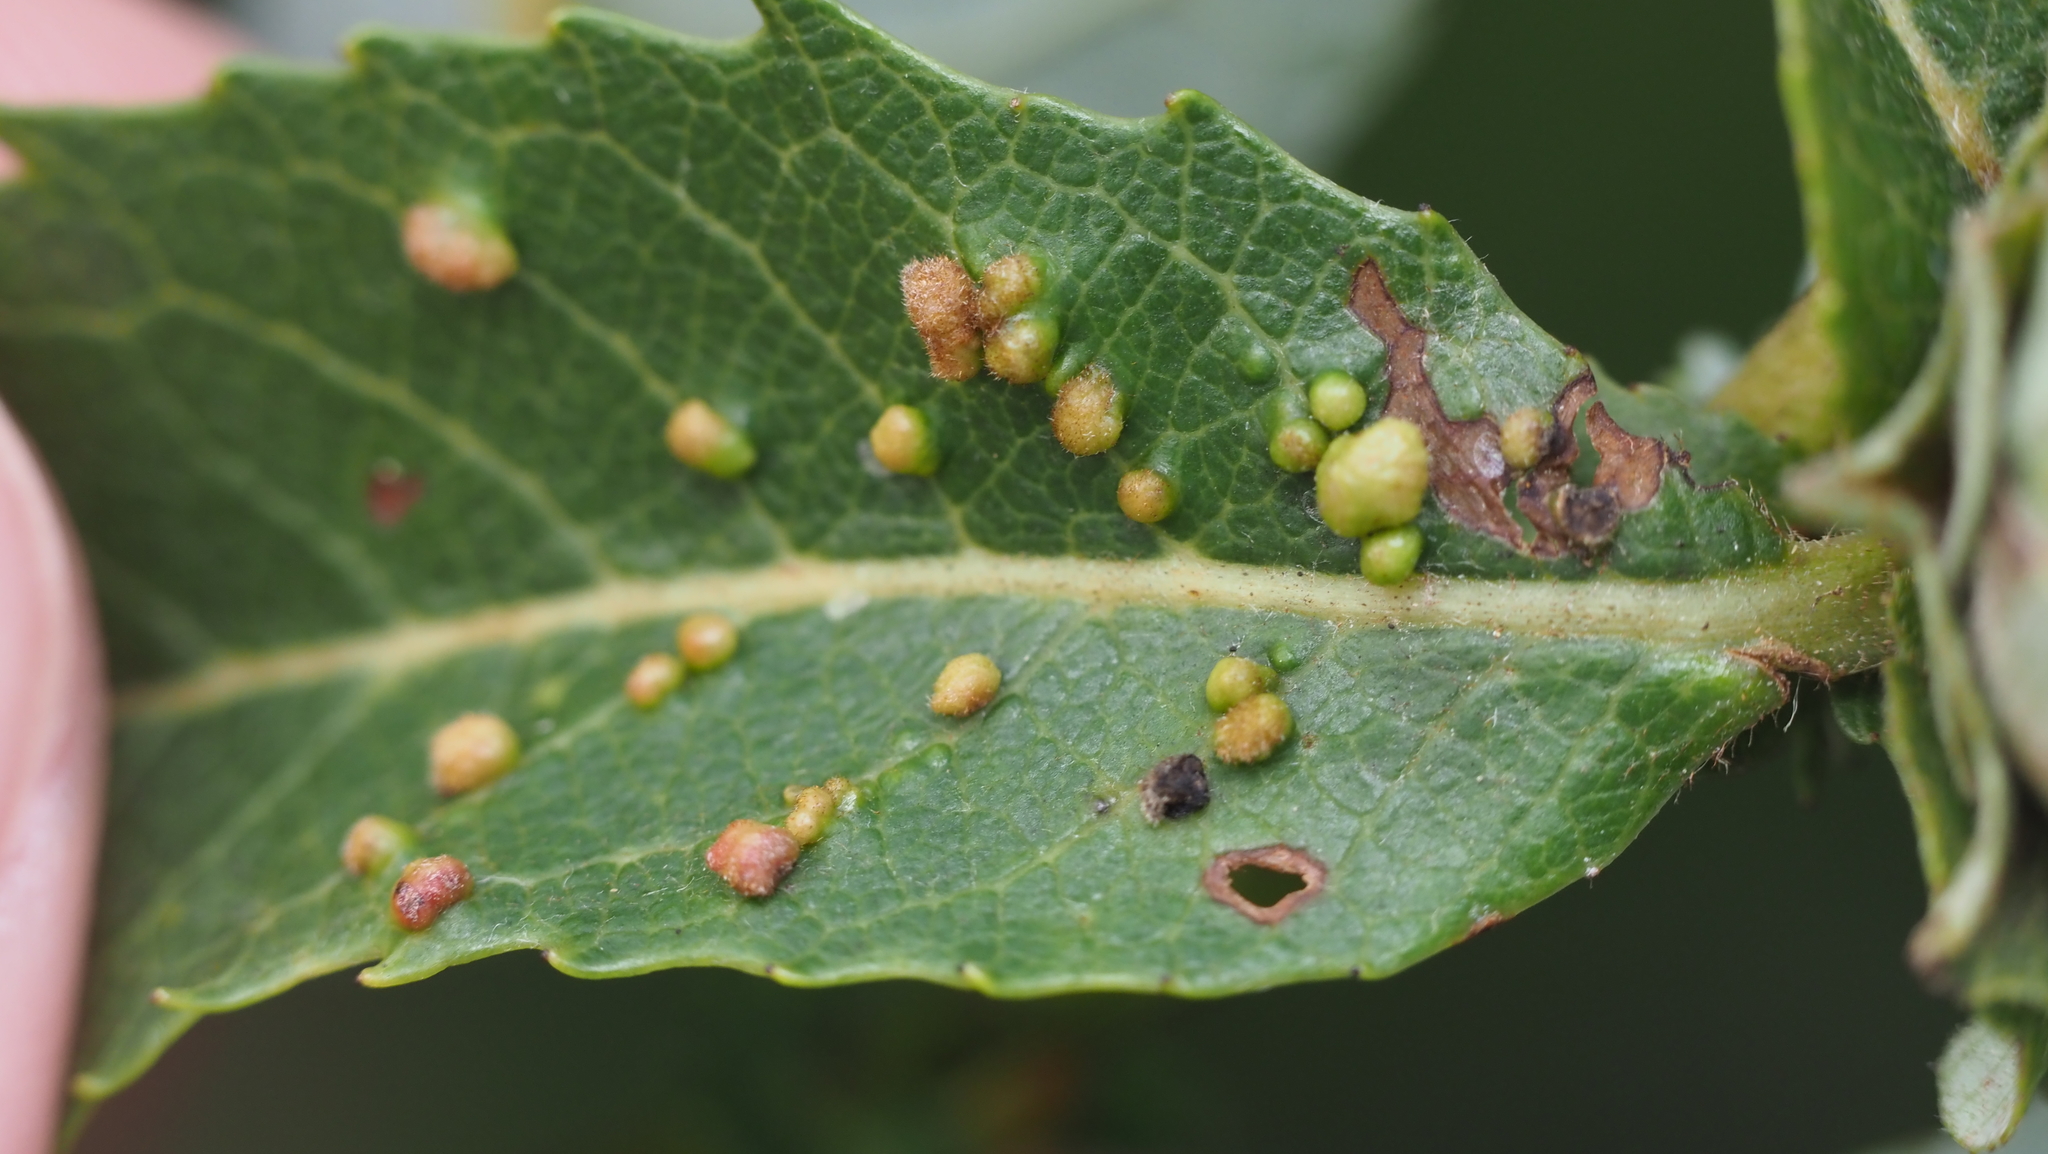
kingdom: Animalia
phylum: Arthropoda
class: Arachnida
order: Trombidiformes
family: Eriophyidae
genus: Aculus
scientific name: Aculus tetanothrix
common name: Willow bead gall mite
